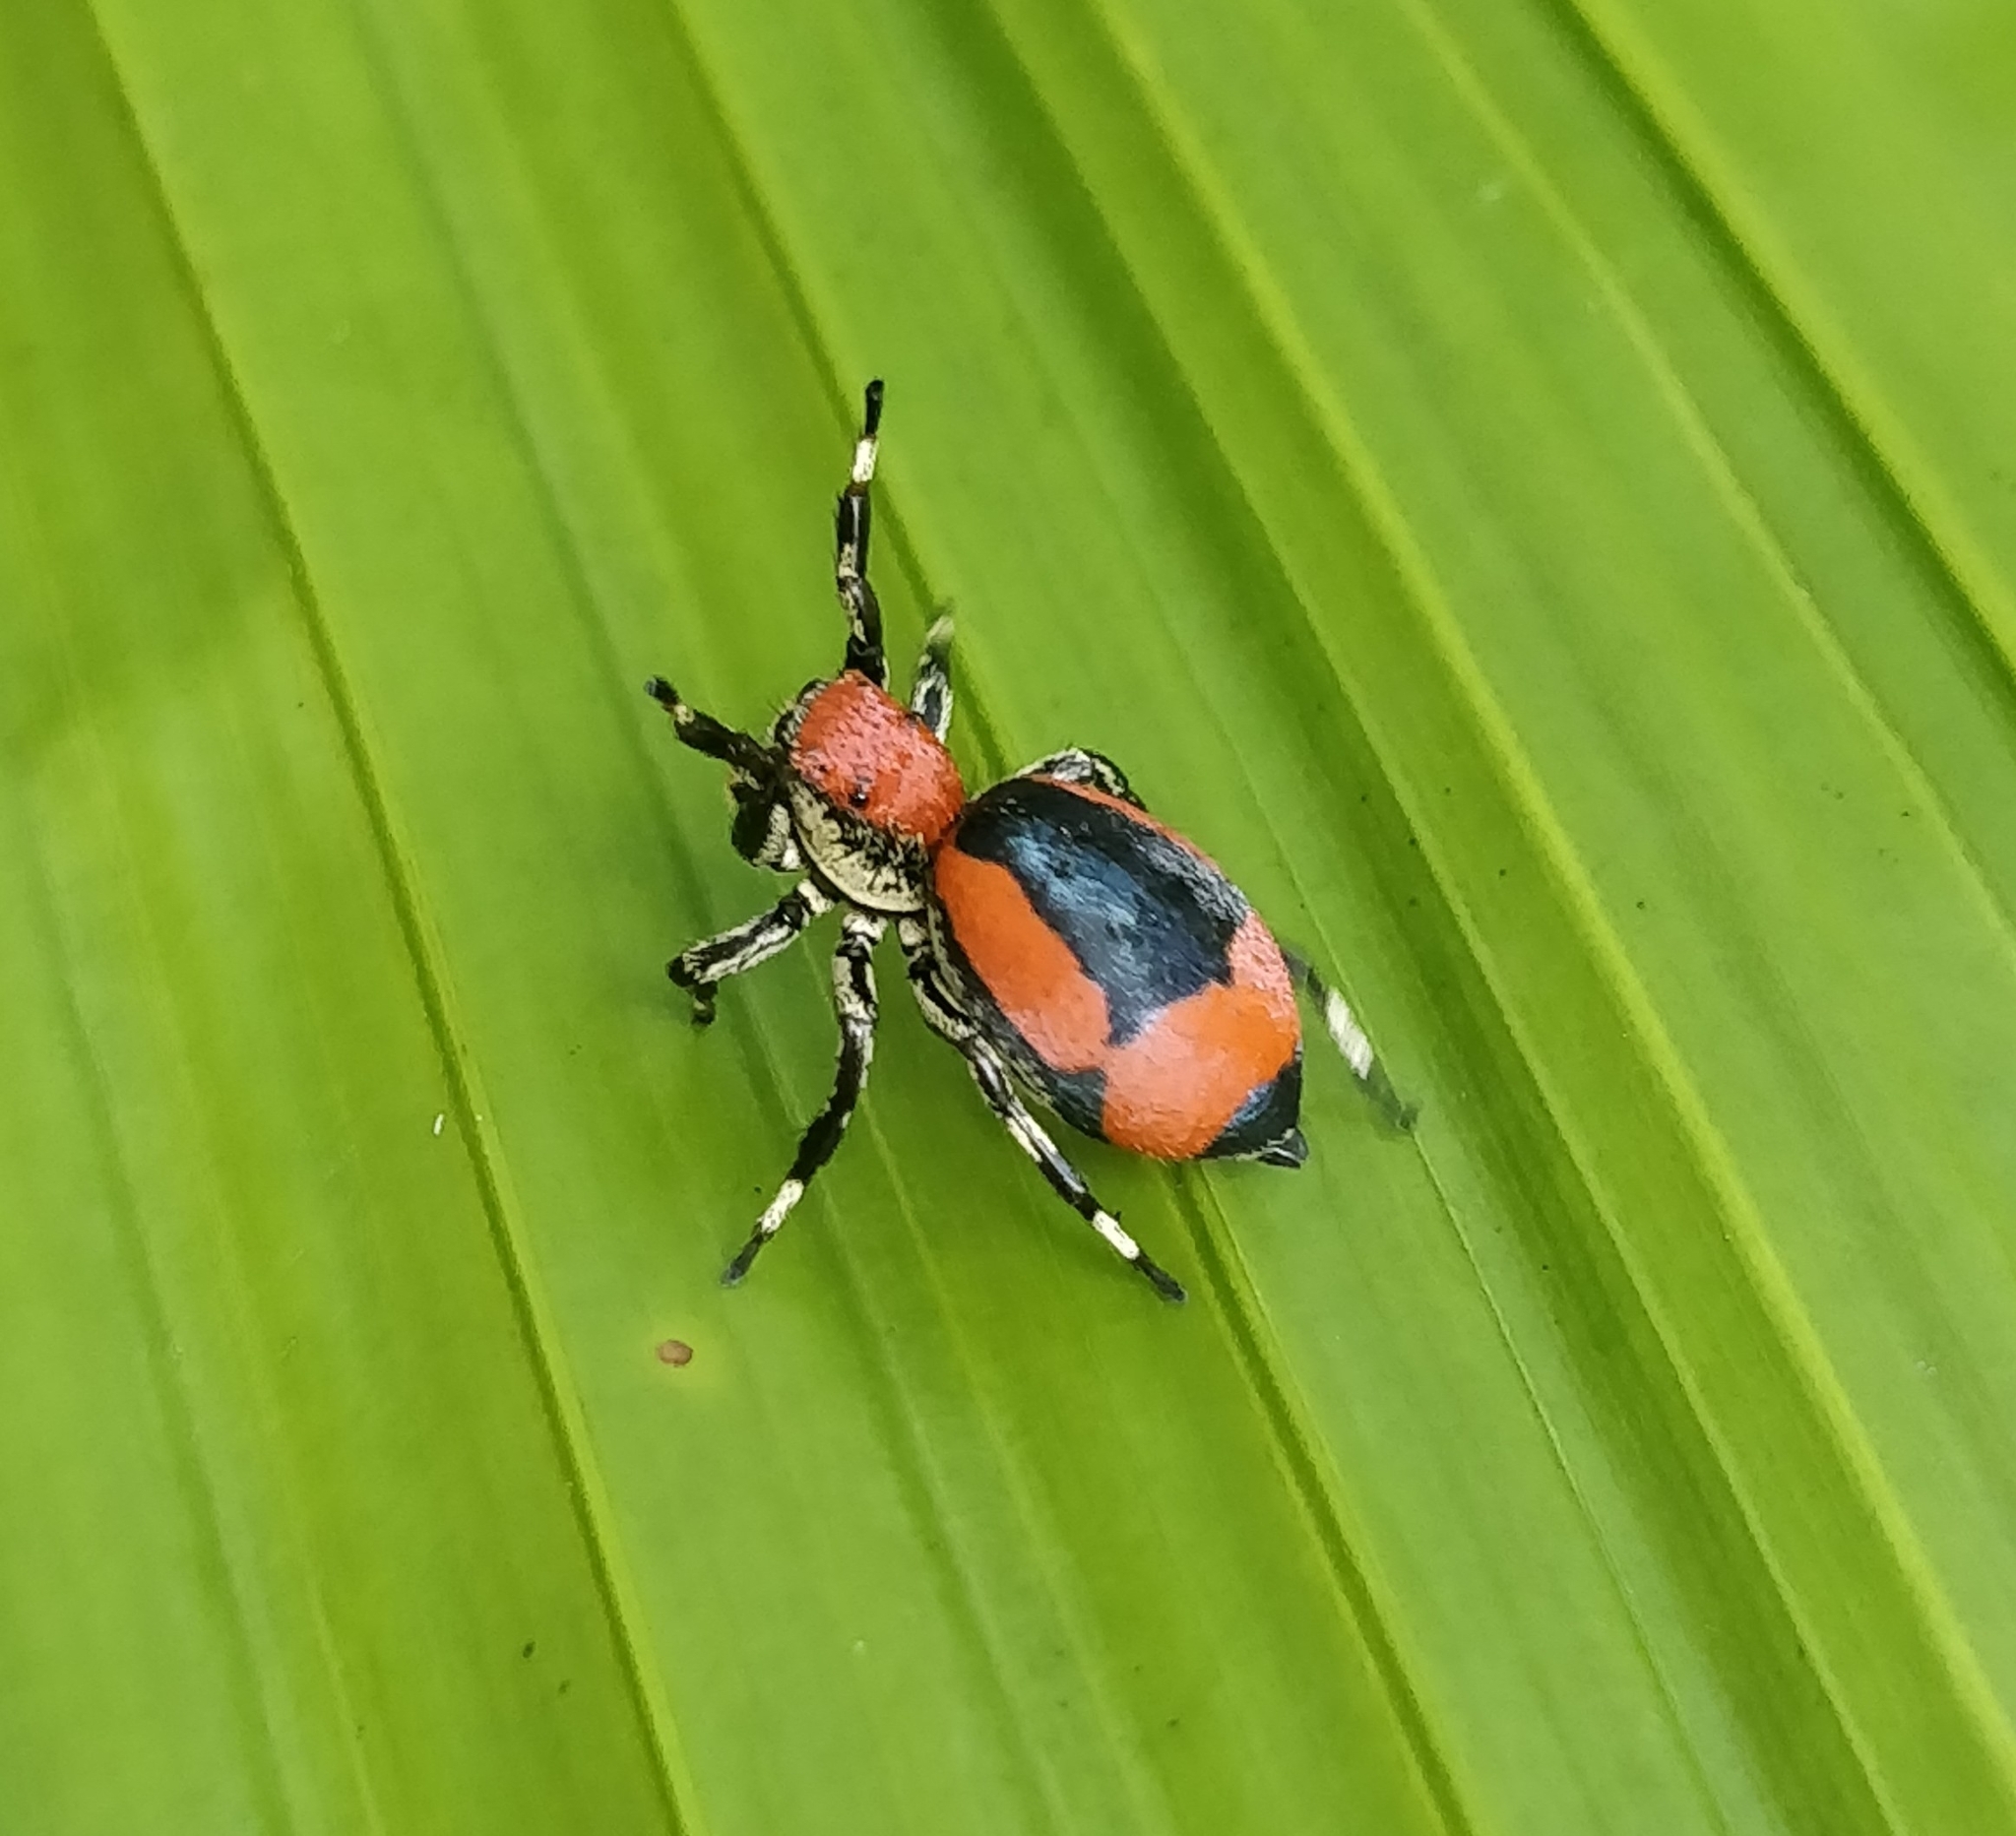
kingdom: Animalia
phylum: Arthropoda
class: Arachnida
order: Araneae
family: Salticidae
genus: Phiale
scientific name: Phiale mimica
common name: Jumping spiders
